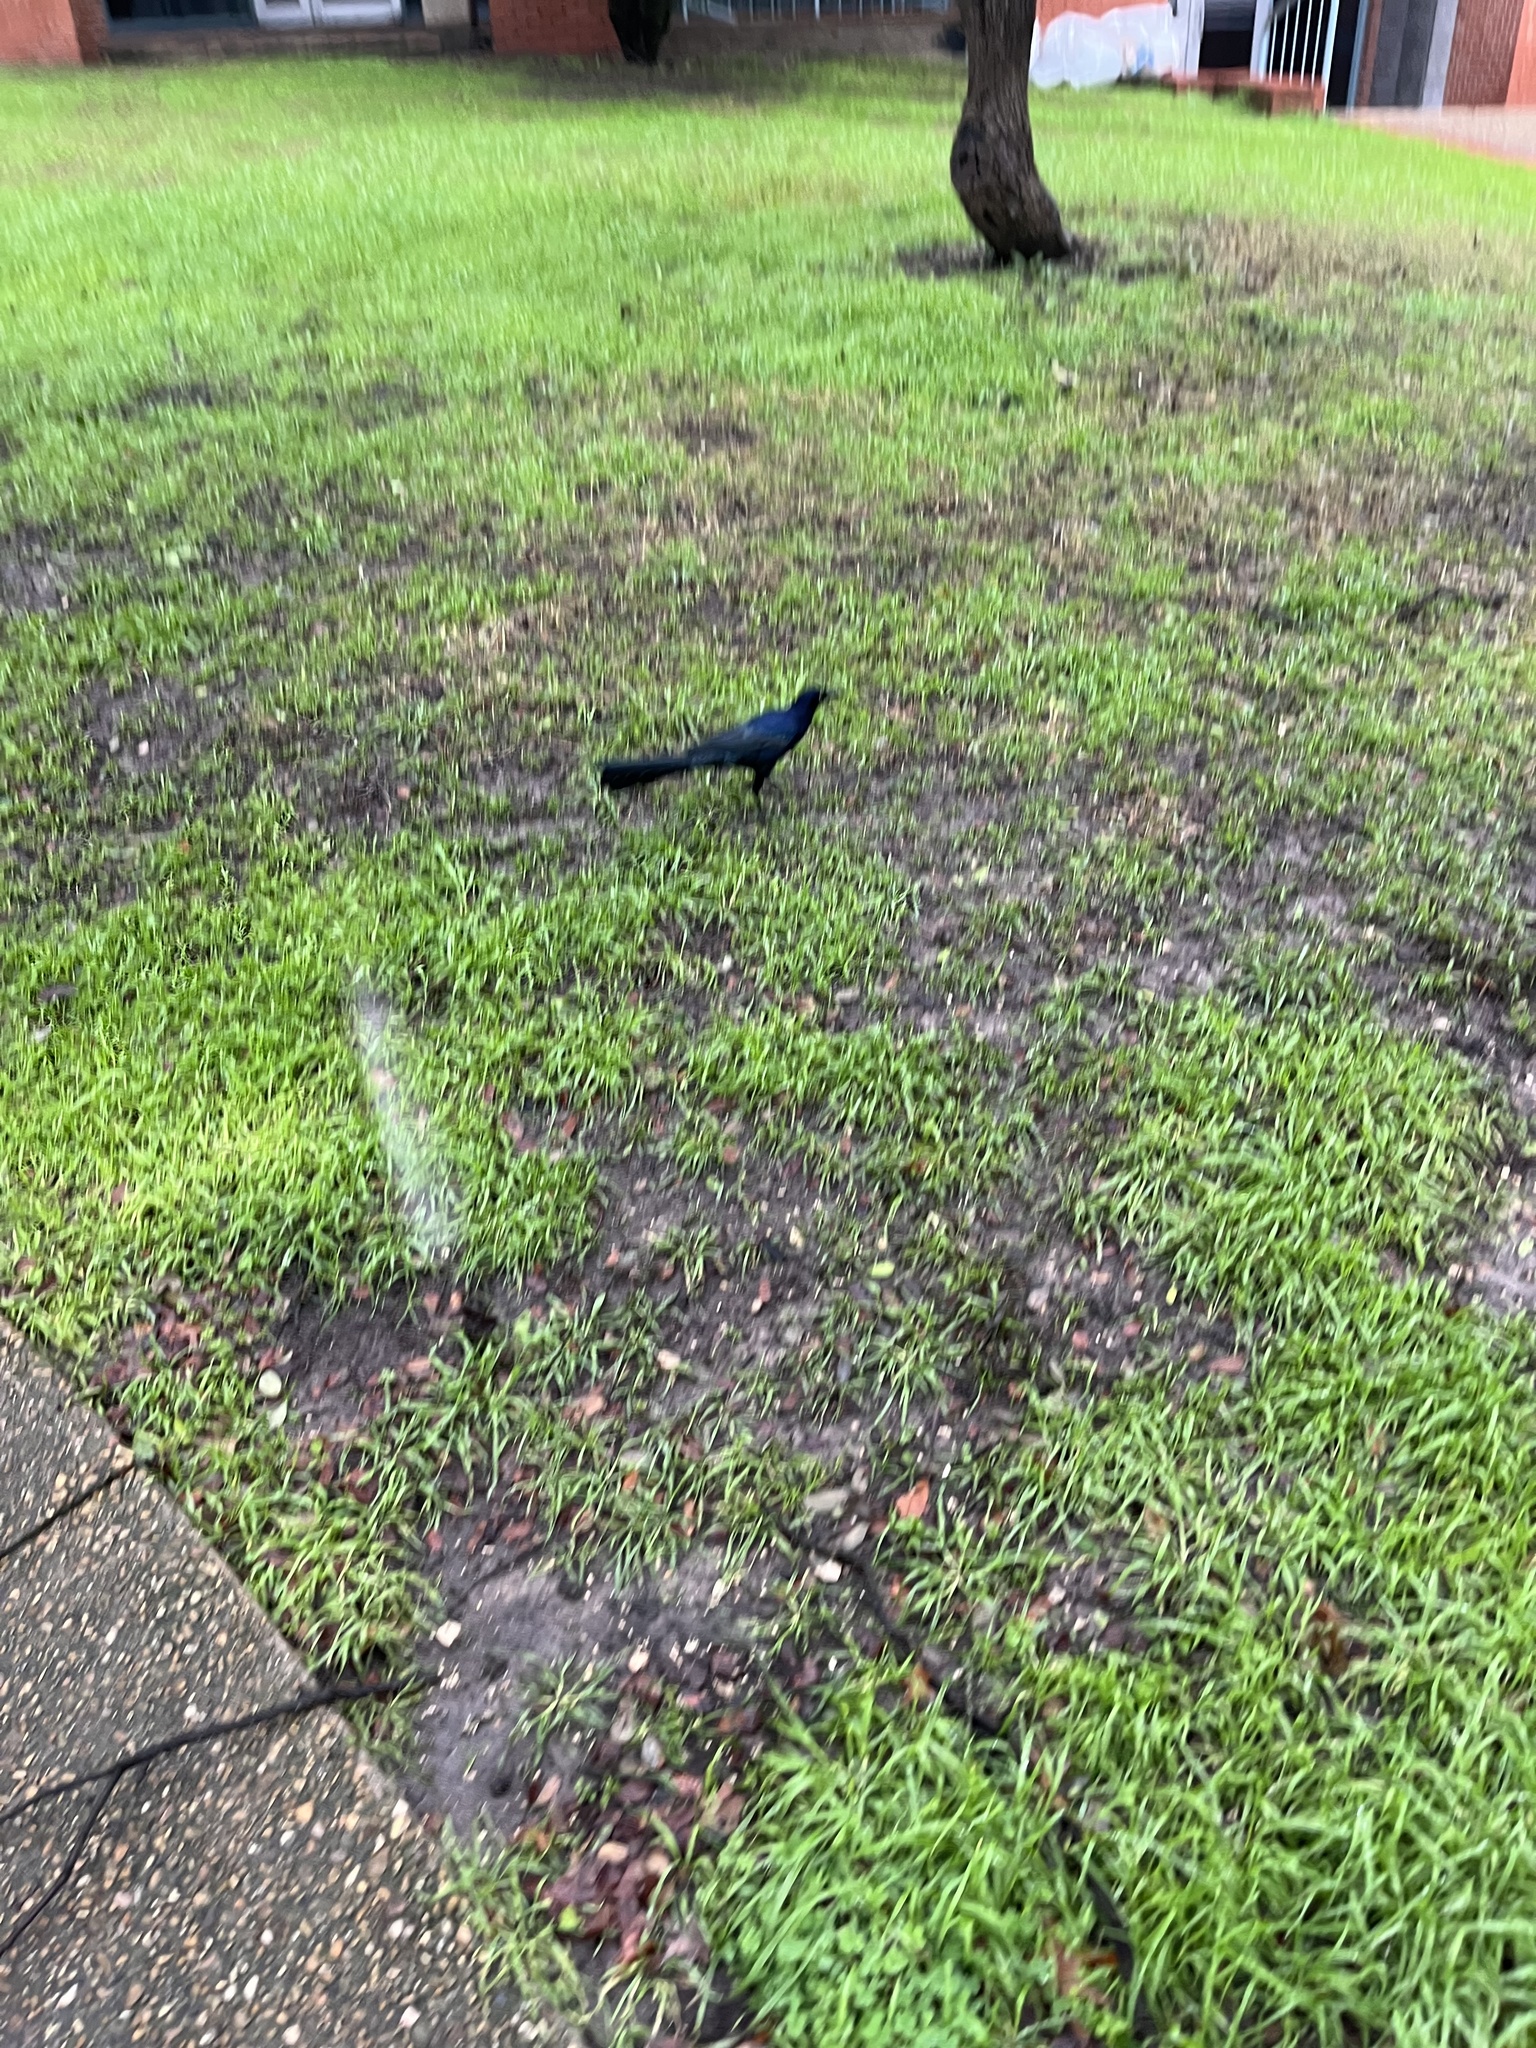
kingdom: Animalia
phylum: Chordata
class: Aves
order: Passeriformes
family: Icteridae
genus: Quiscalus
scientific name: Quiscalus mexicanus
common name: Great-tailed grackle
